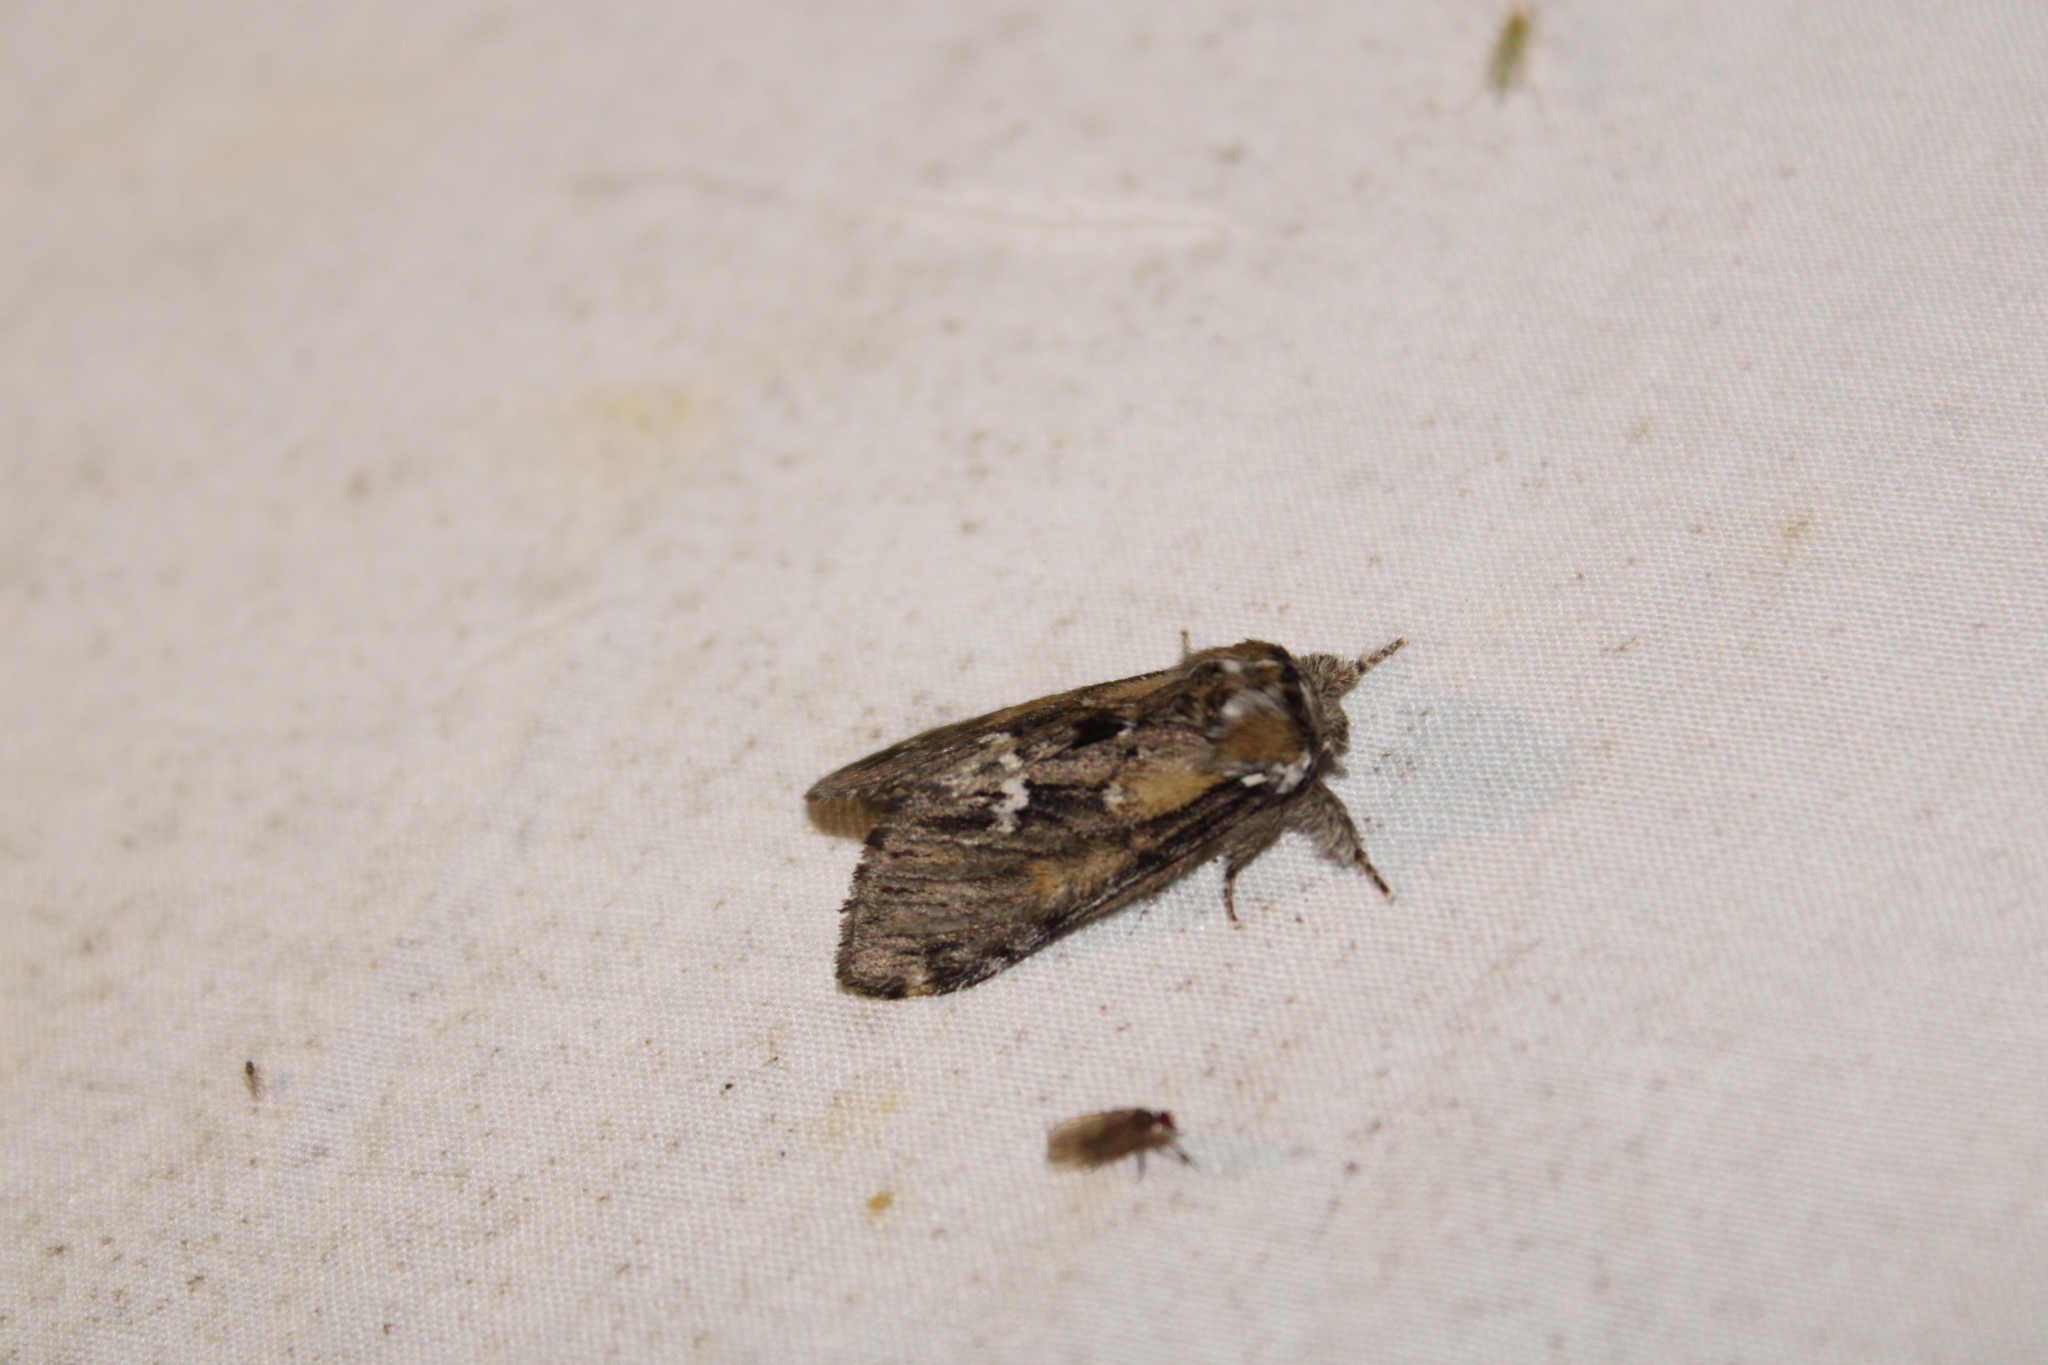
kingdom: Animalia
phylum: Arthropoda
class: Insecta
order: Lepidoptera
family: Notodontidae
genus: Paraeschra
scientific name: Paraeschra georgica
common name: Georgian prominent
